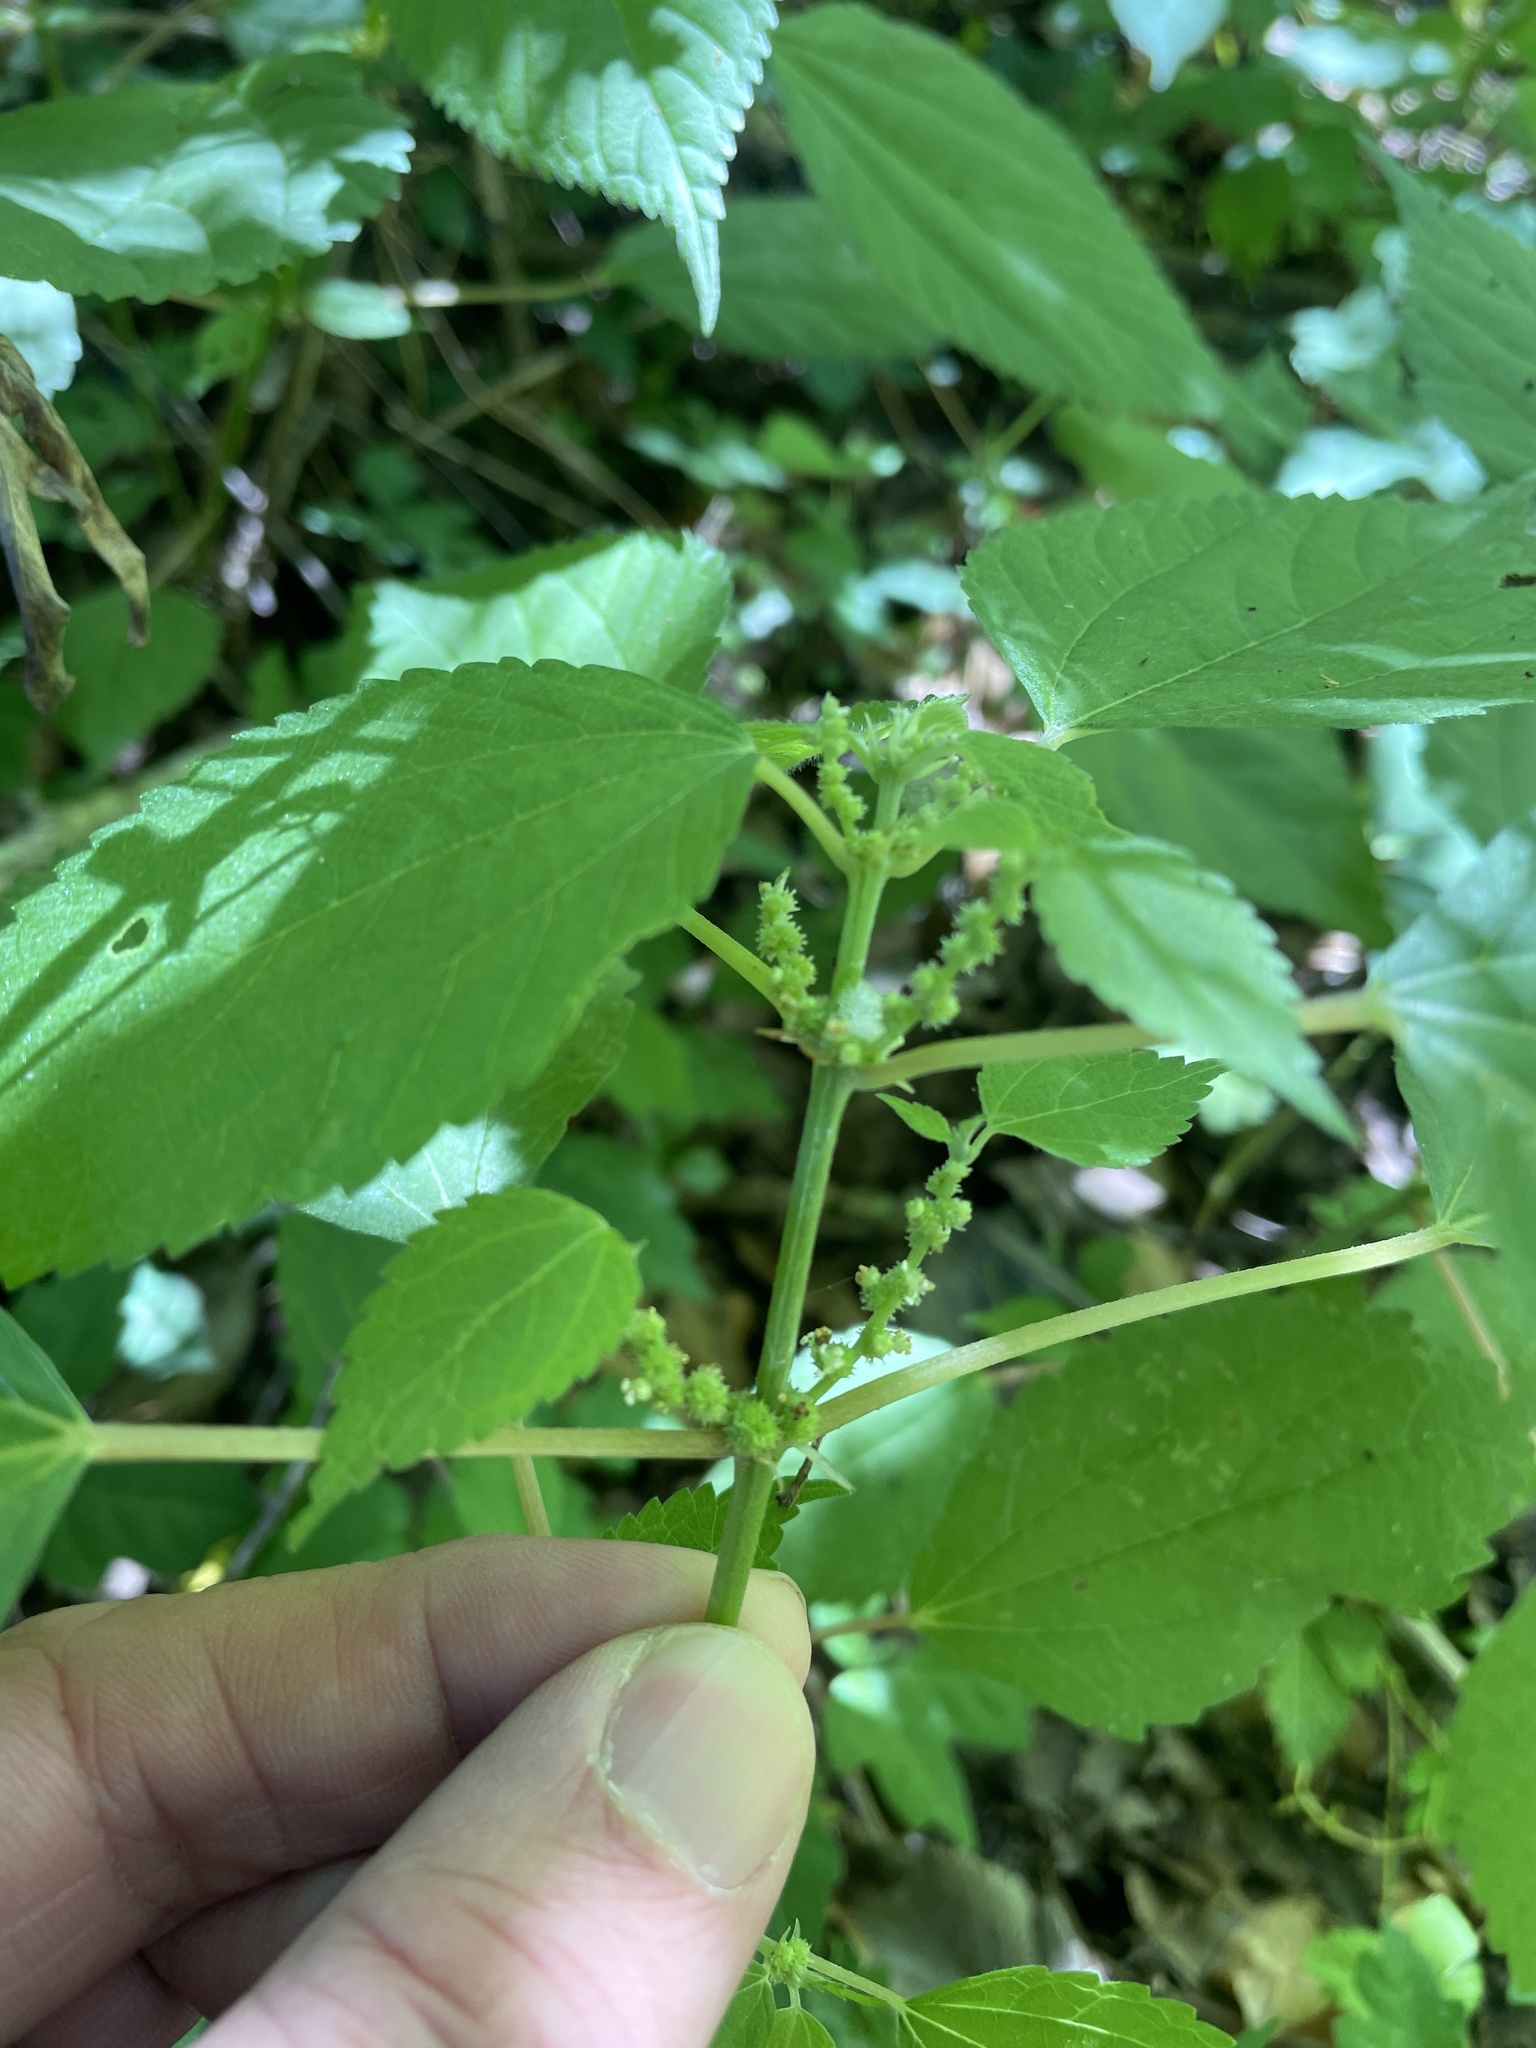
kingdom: Plantae
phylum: Tracheophyta
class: Magnoliopsida
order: Rosales
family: Urticaceae
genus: Boehmeria
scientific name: Boehmeria cylindrica
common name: Bog-hemp
